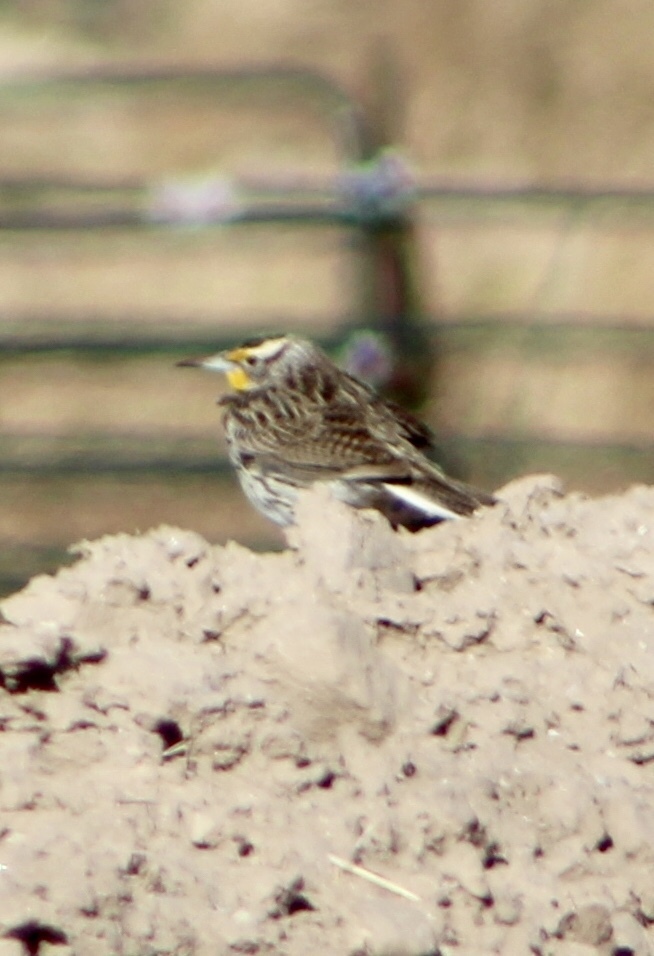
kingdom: Animalia
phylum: Chordata
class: Aves
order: Passeriformes
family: Icteridae
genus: Sturnella
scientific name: Sturnella neglecta
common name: Western meadowlark
